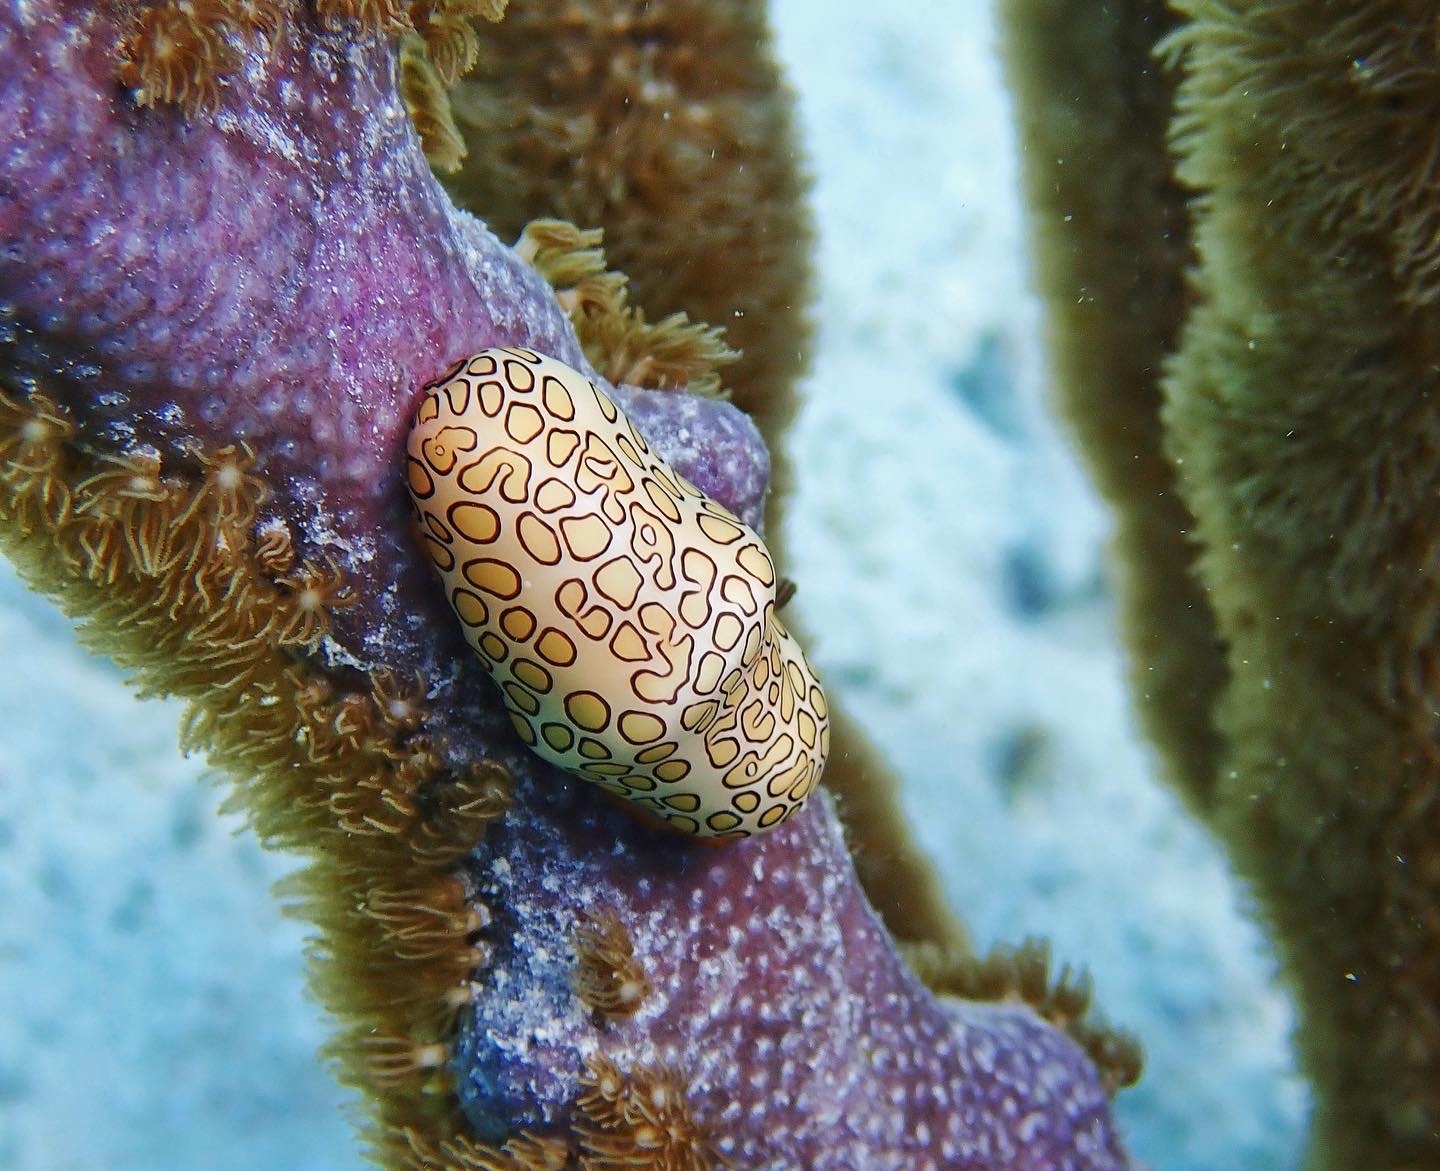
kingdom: Animalia
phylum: Mollusca
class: Gastropoda
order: Littorinimorpha
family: Ovulidae
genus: Cyphoma
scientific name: Cyphoma gibbosum
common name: Flamingo tongue
